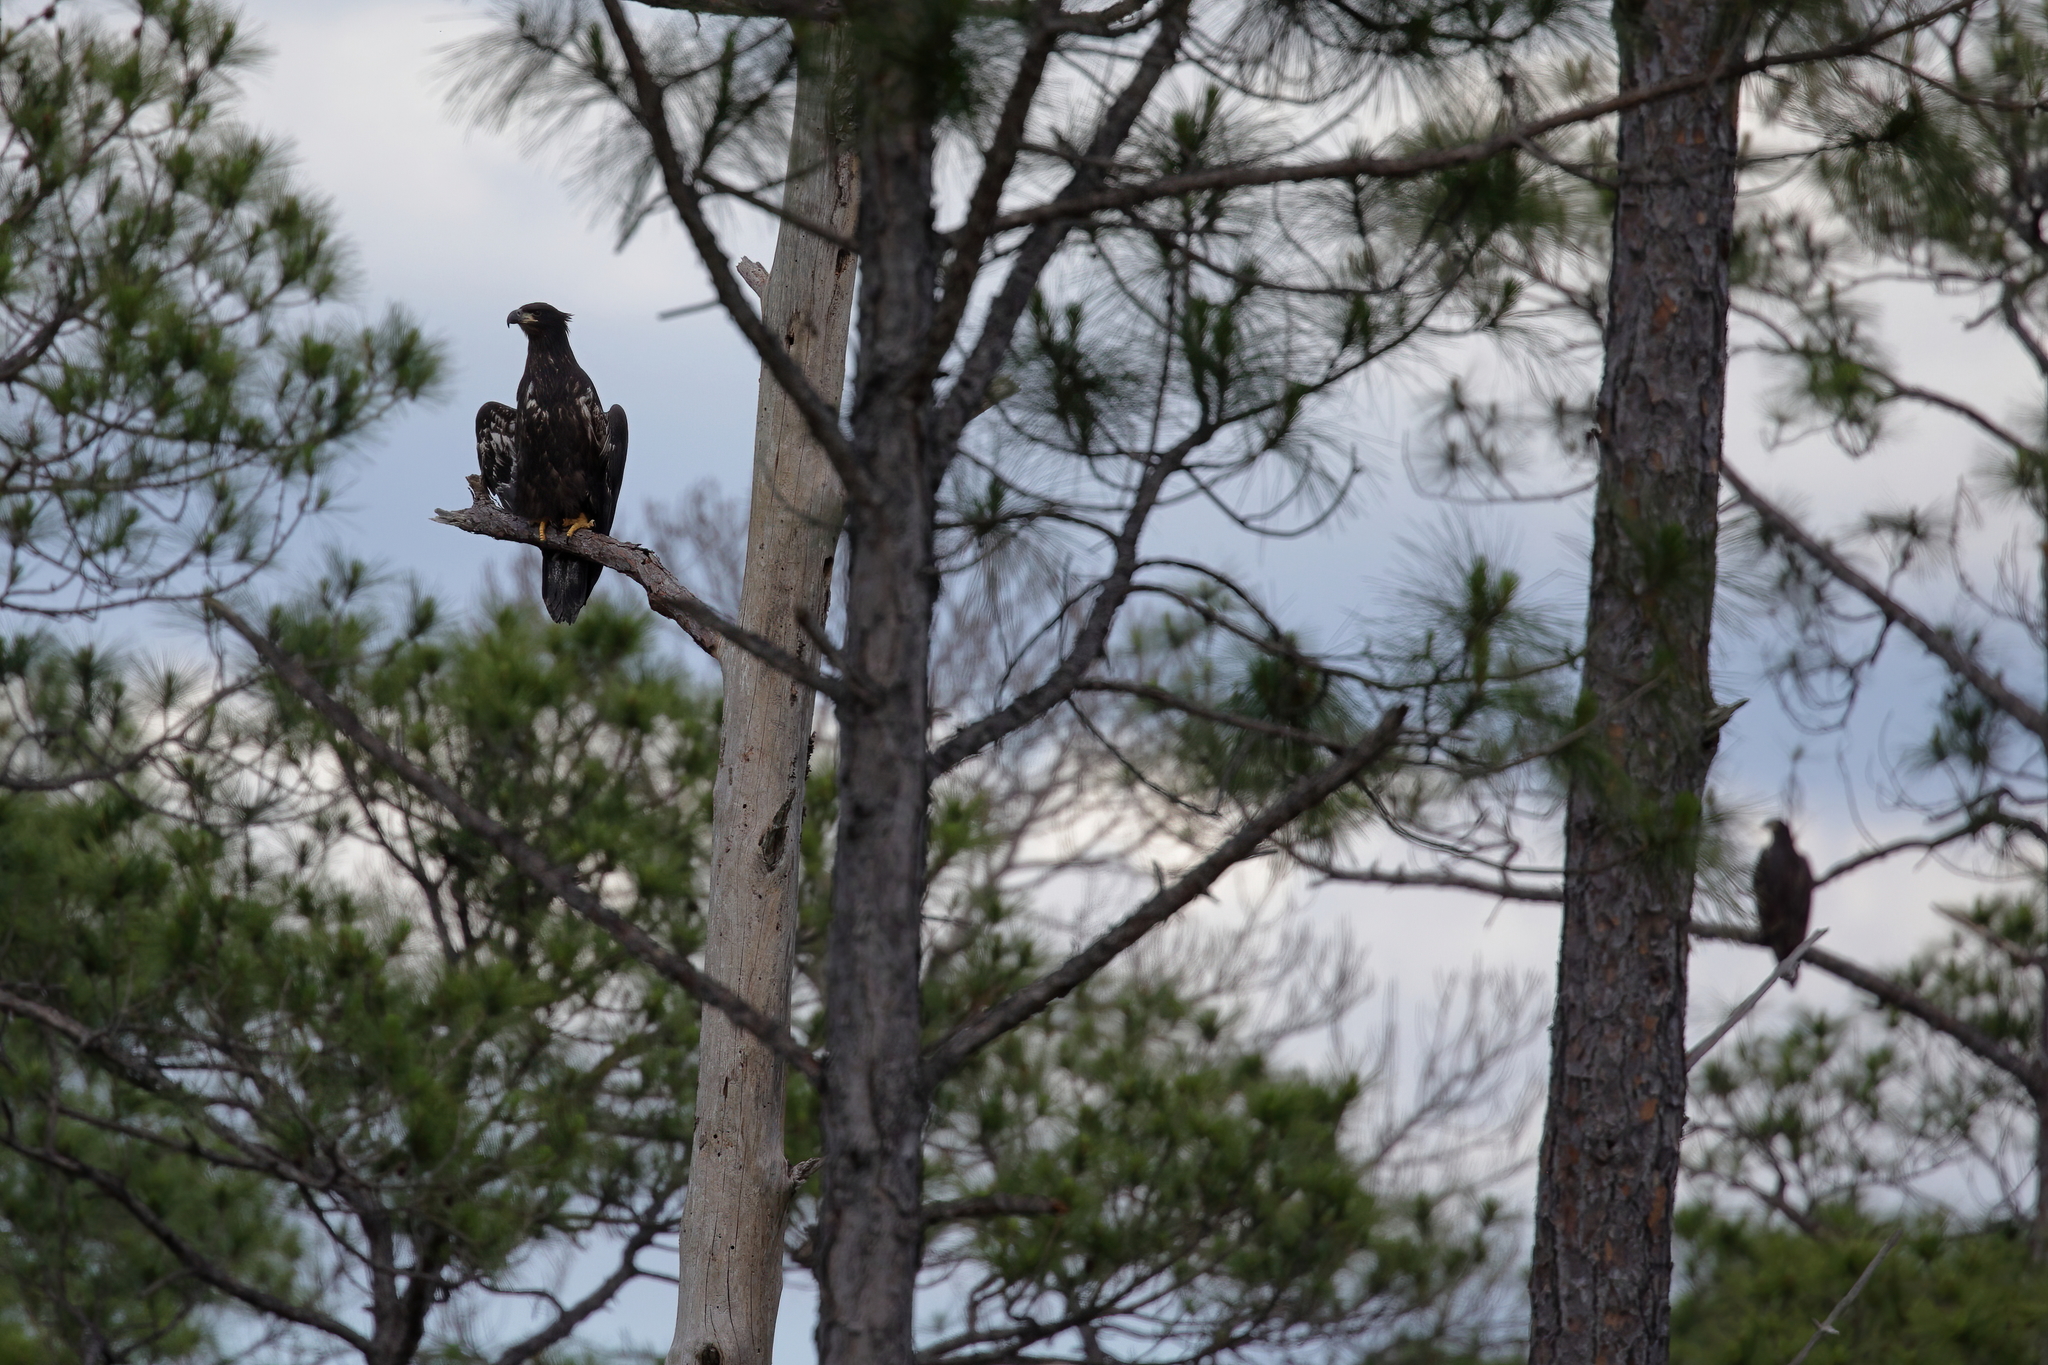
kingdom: Animalia
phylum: Chordata
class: Aves
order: Accipitriformes
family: Accipitridae
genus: Haliaeetus
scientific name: Haliaeetus leucocephalus
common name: Bald eagle
